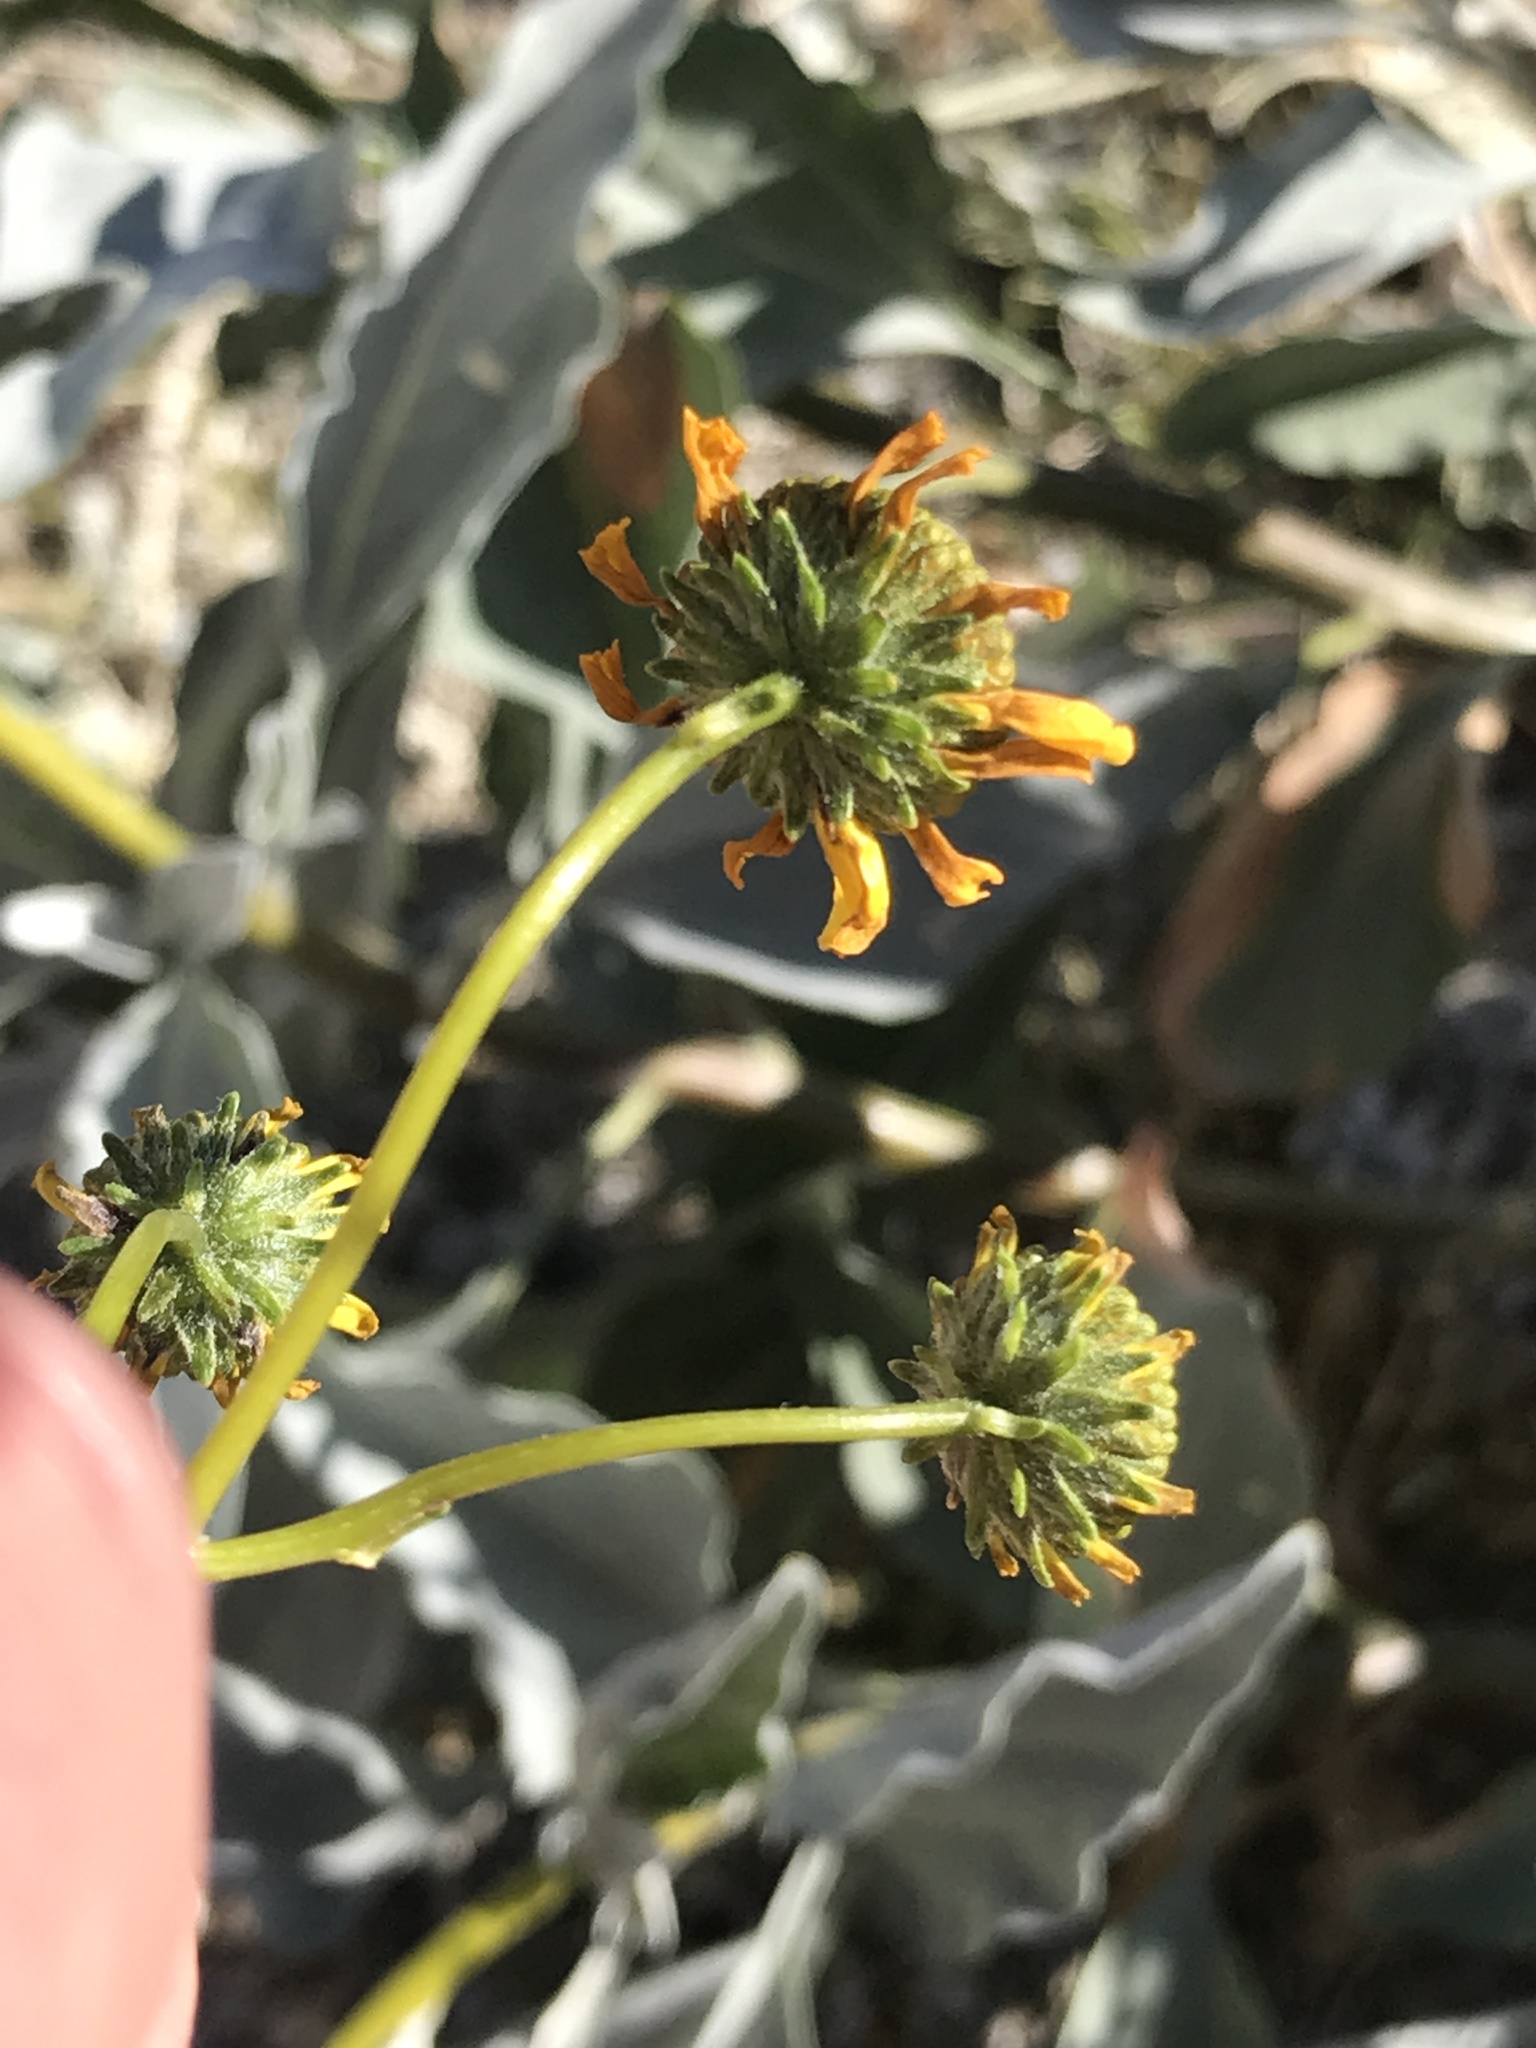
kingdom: Plantae
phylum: Tracheophyta
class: Magnoliopsida
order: Asterales
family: Asteraceae
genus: Encelia
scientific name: Encelia farinosa
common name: Brittlebush
